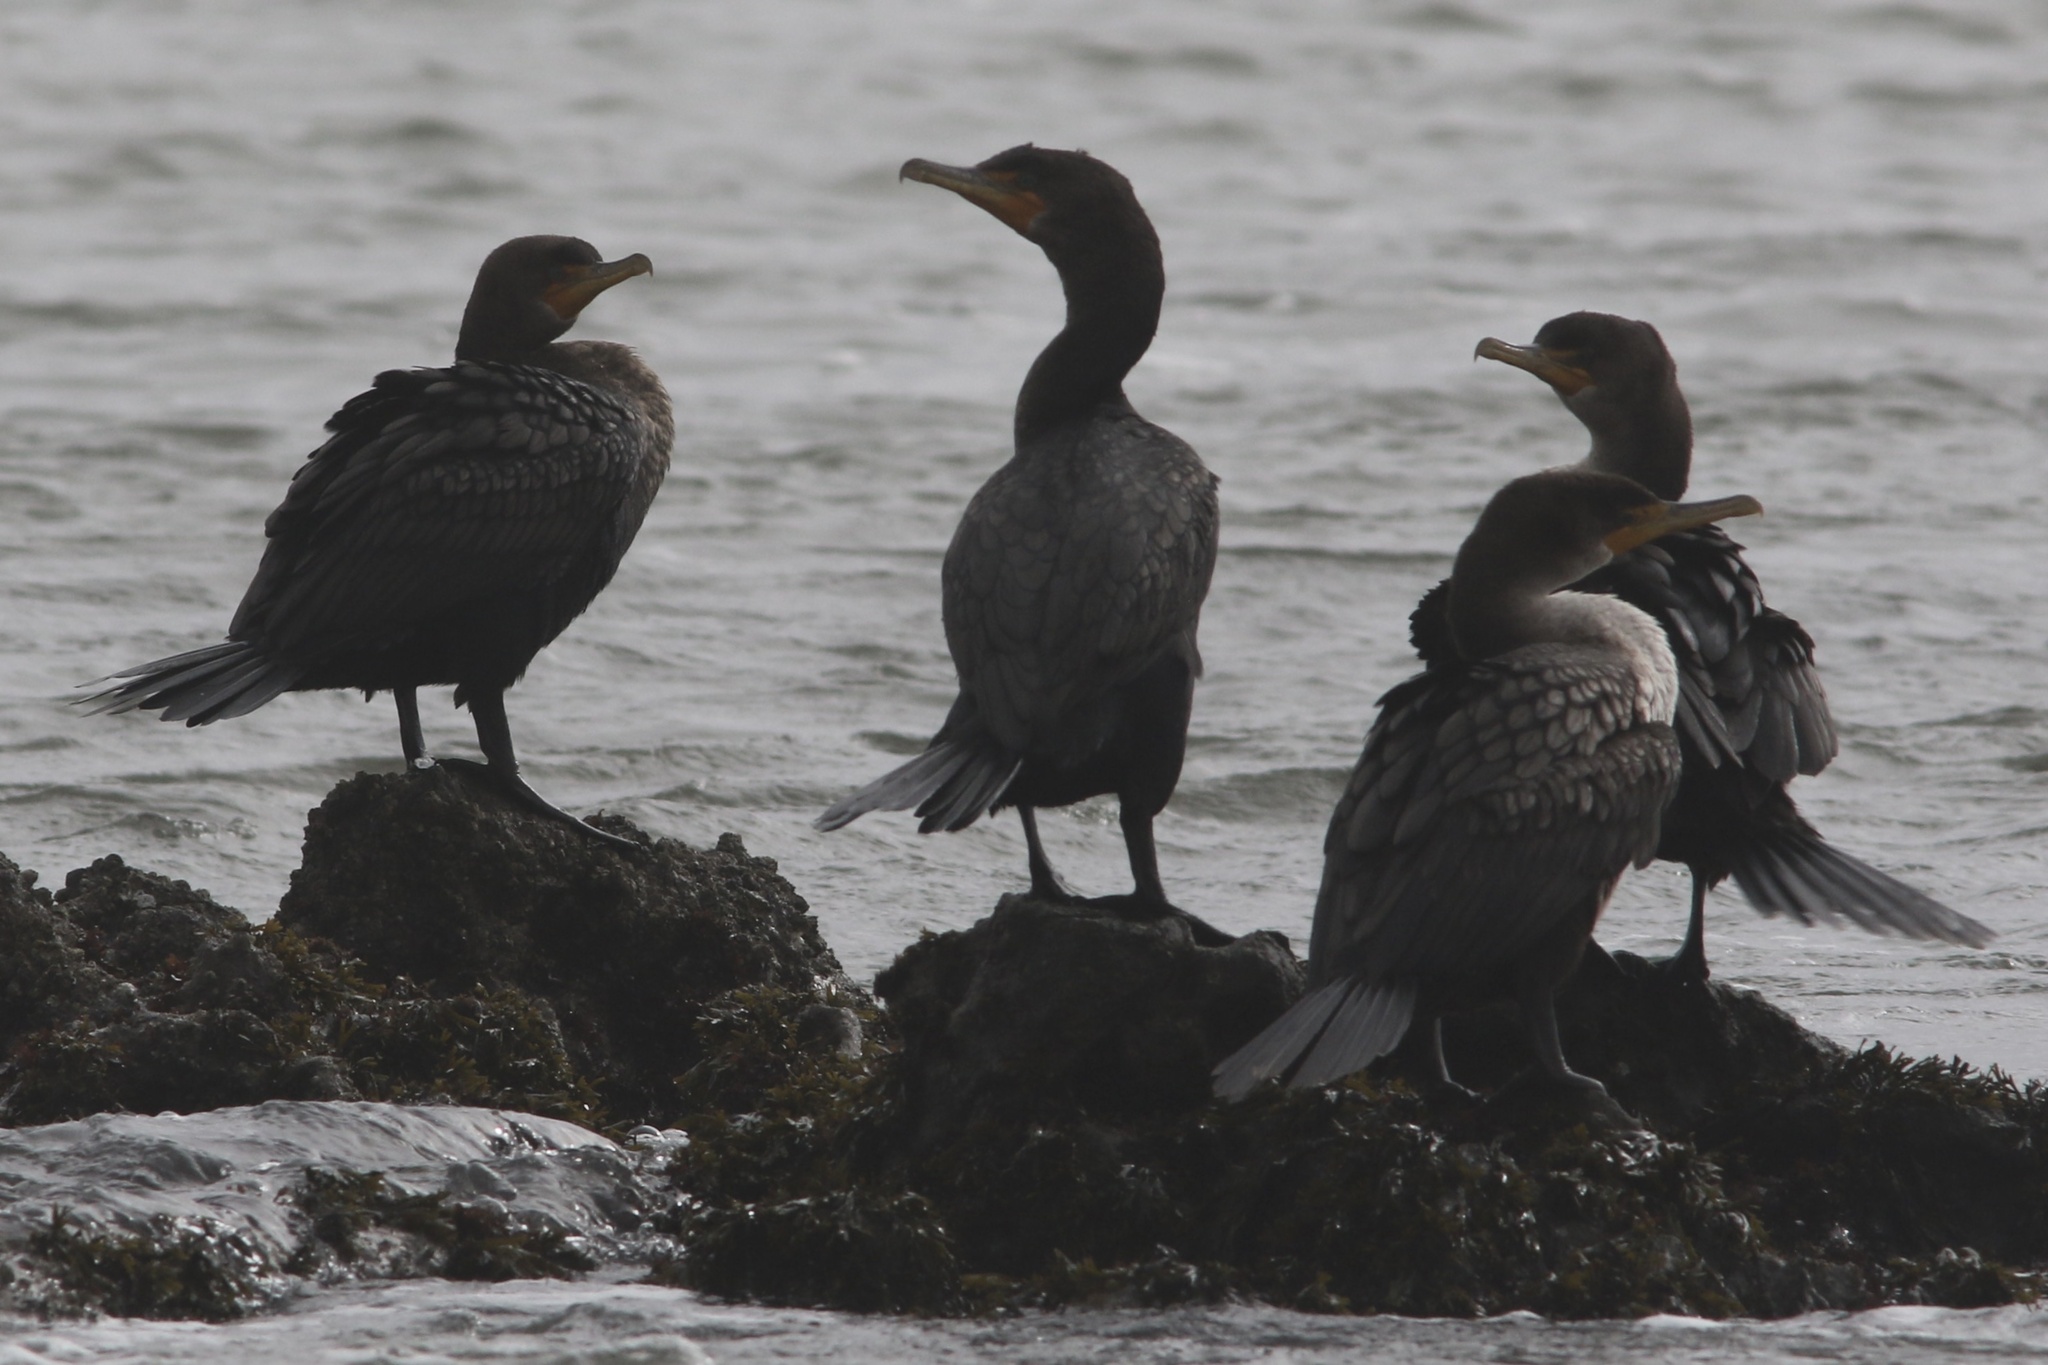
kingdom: Animalia
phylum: Chordata
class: Aves
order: Suliformes
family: Phalacrocoracidae
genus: Phalacrocorax
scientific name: Phalacrocorax auritus
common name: Double-crested cormorant
